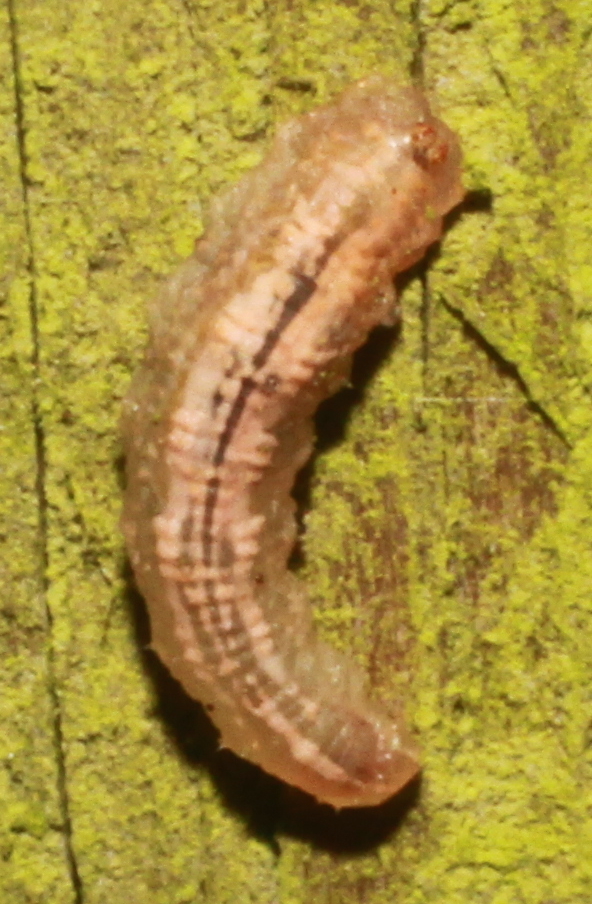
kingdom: Animalia
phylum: Arthropoda
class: Insecta
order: Diptera
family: Syrphidae
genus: Syrphus
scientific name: Syrphus
